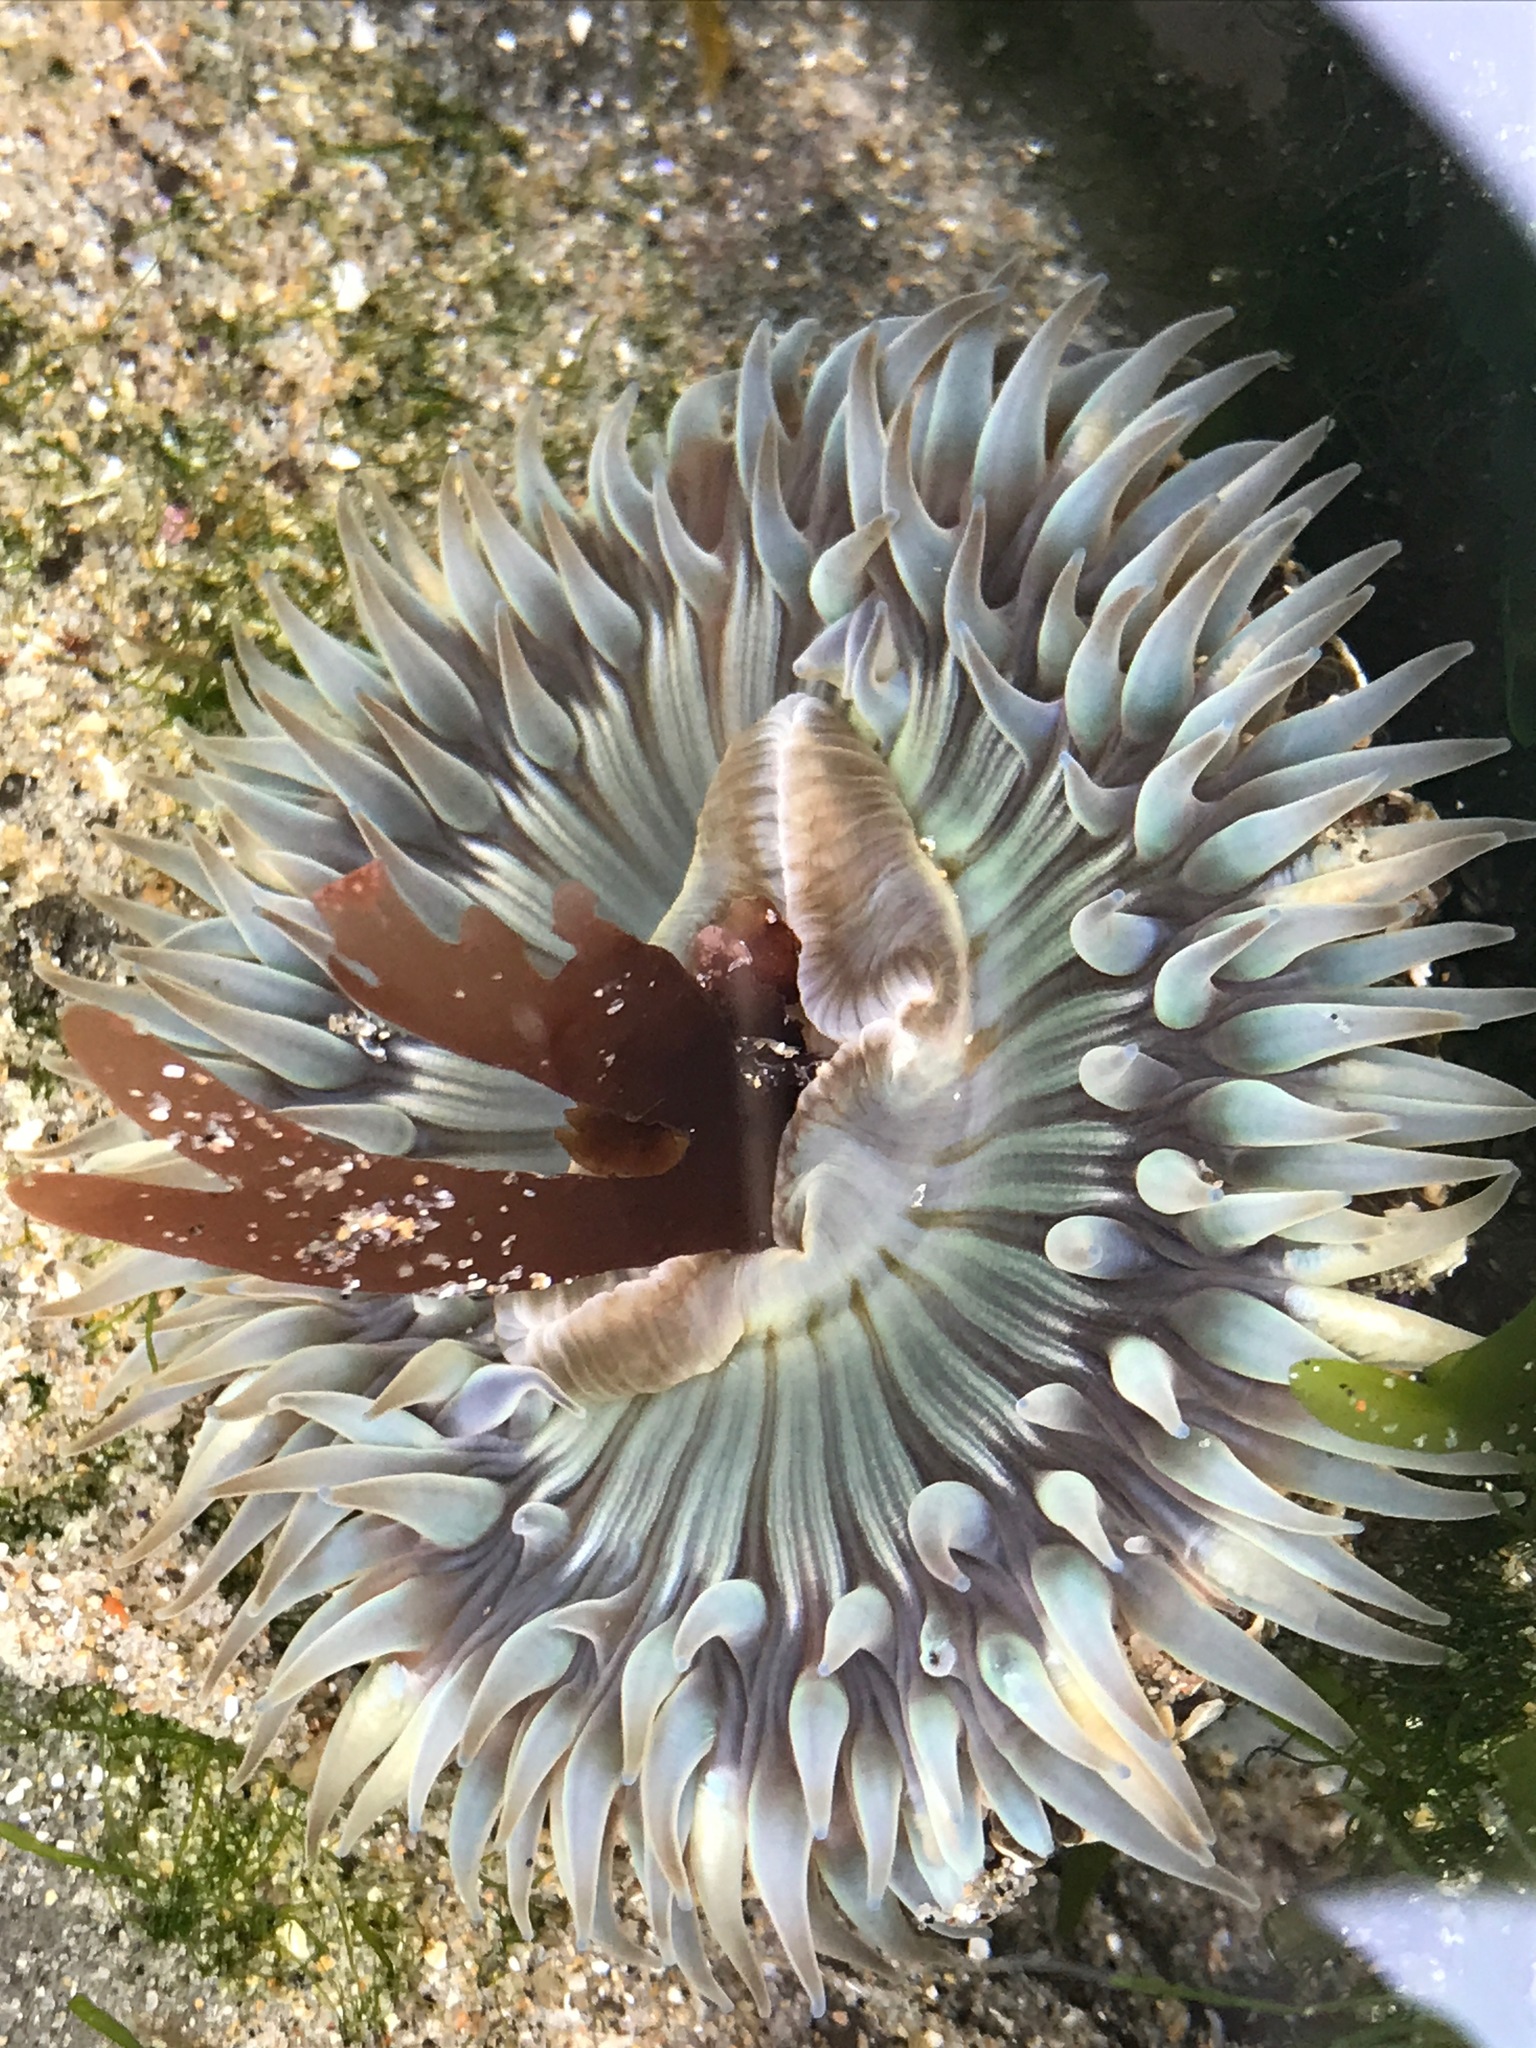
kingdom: Animalia
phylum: Cnidaria
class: Anthozoa
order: Actiniaria
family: Actiniidae
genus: Anthopleura
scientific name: Anthopleura sola
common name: Sun anemone
